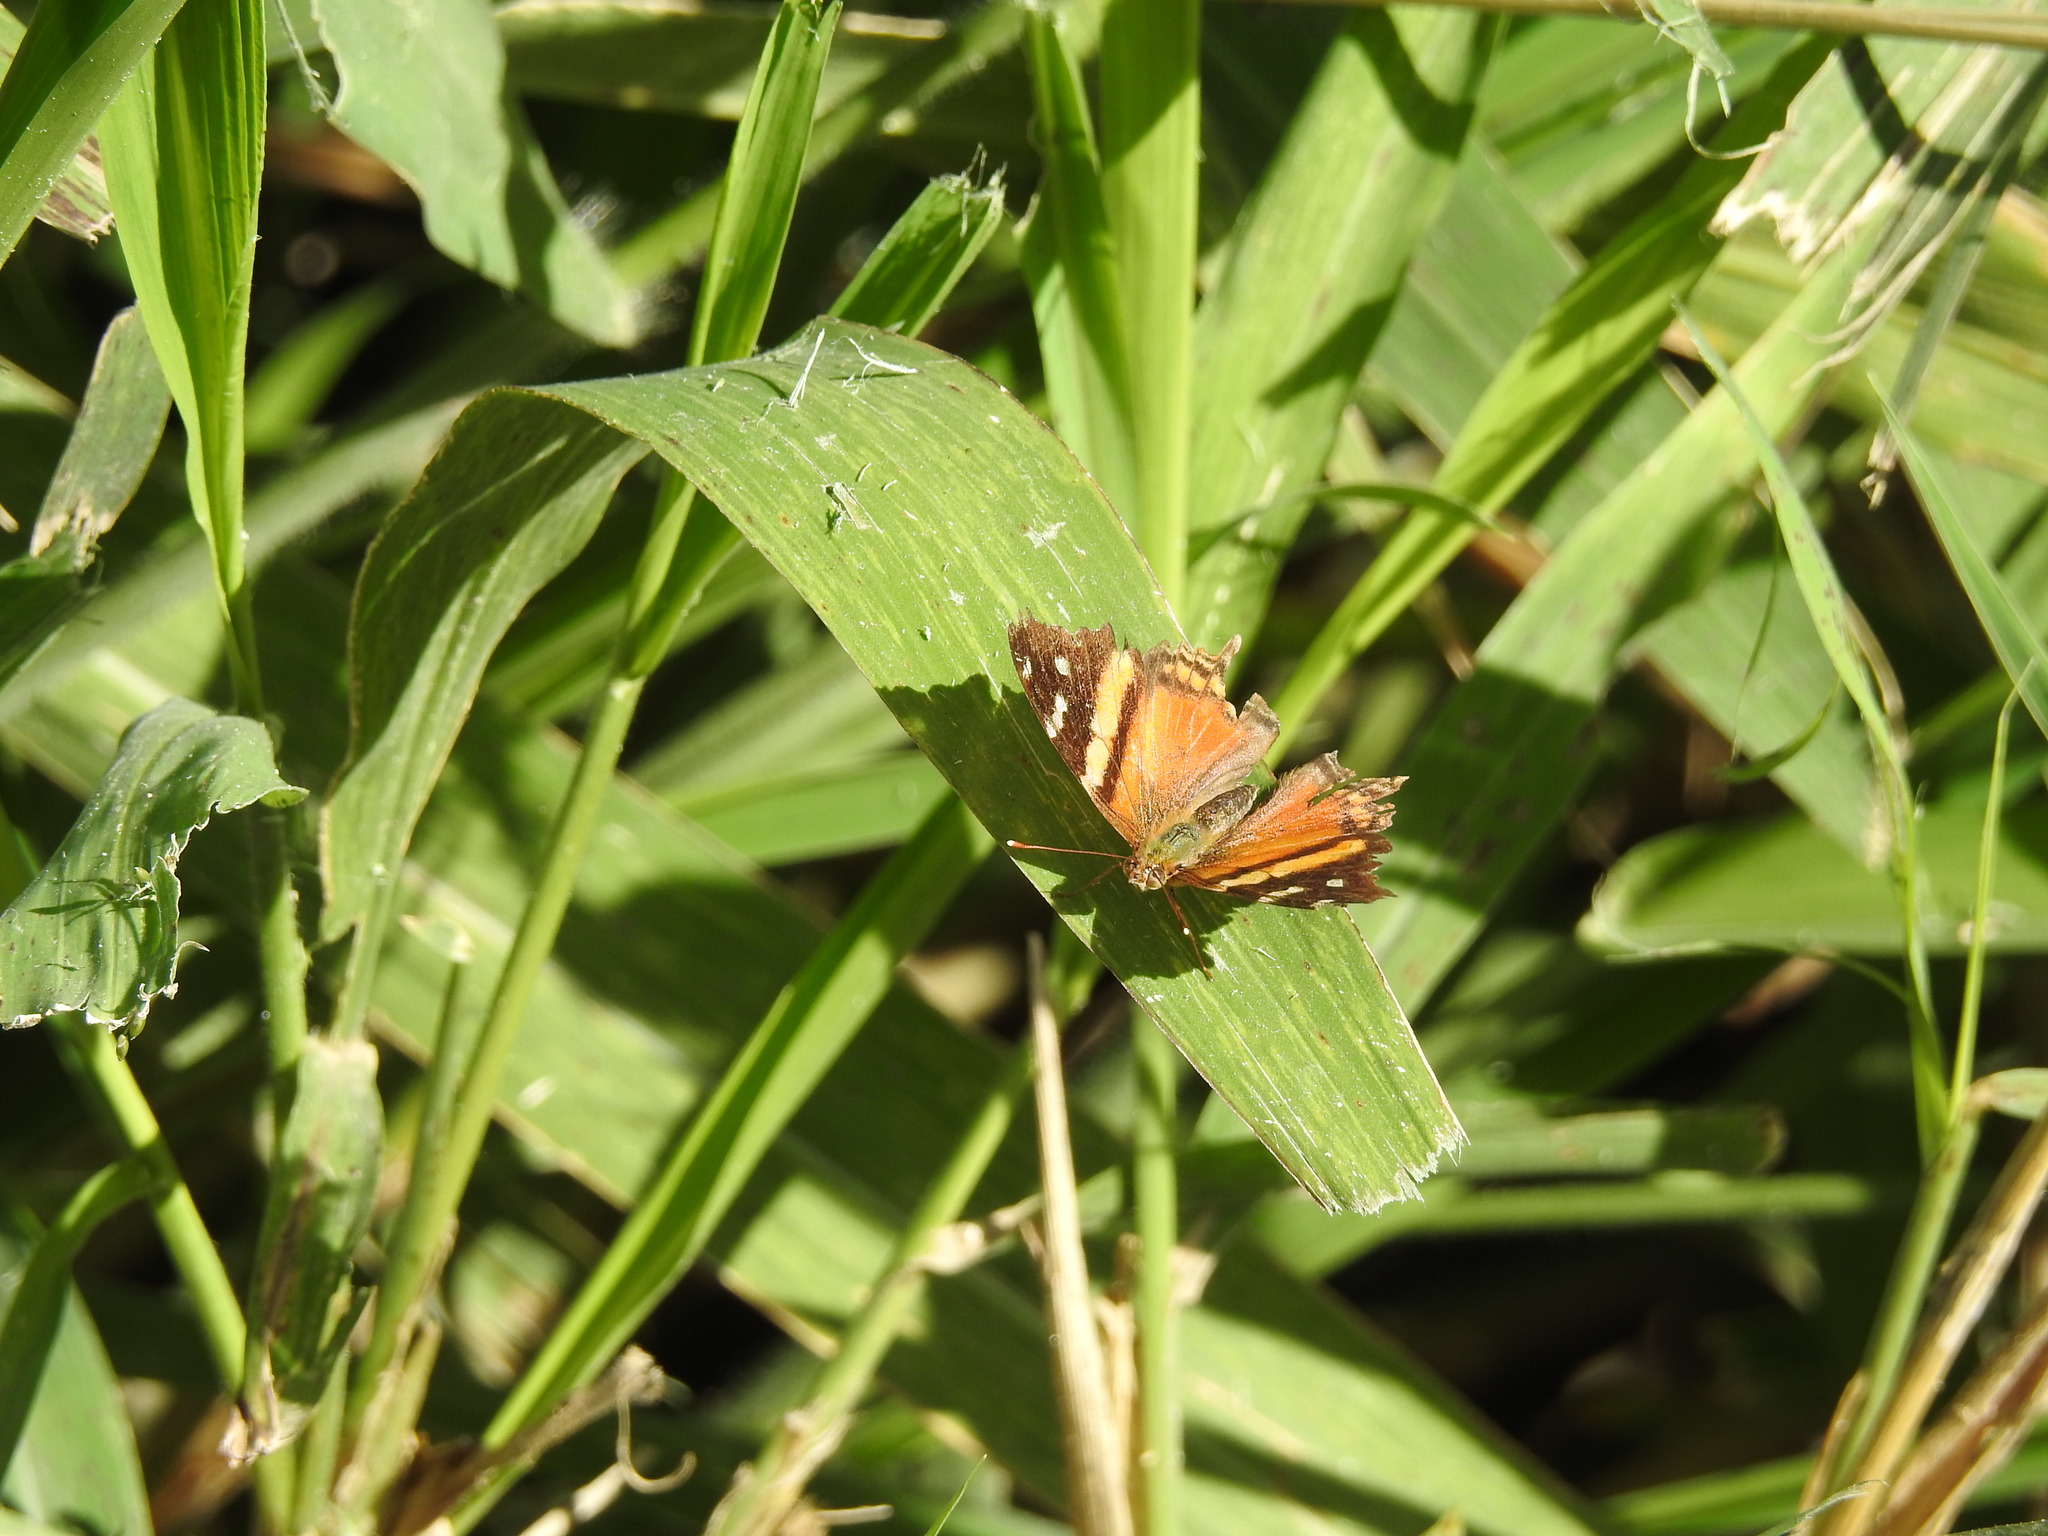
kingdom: Animalia
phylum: Arthropoda
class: Insecta
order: Lepidoptera
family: Nymphalidae
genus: Hypanartia
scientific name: Hypanartia bella
